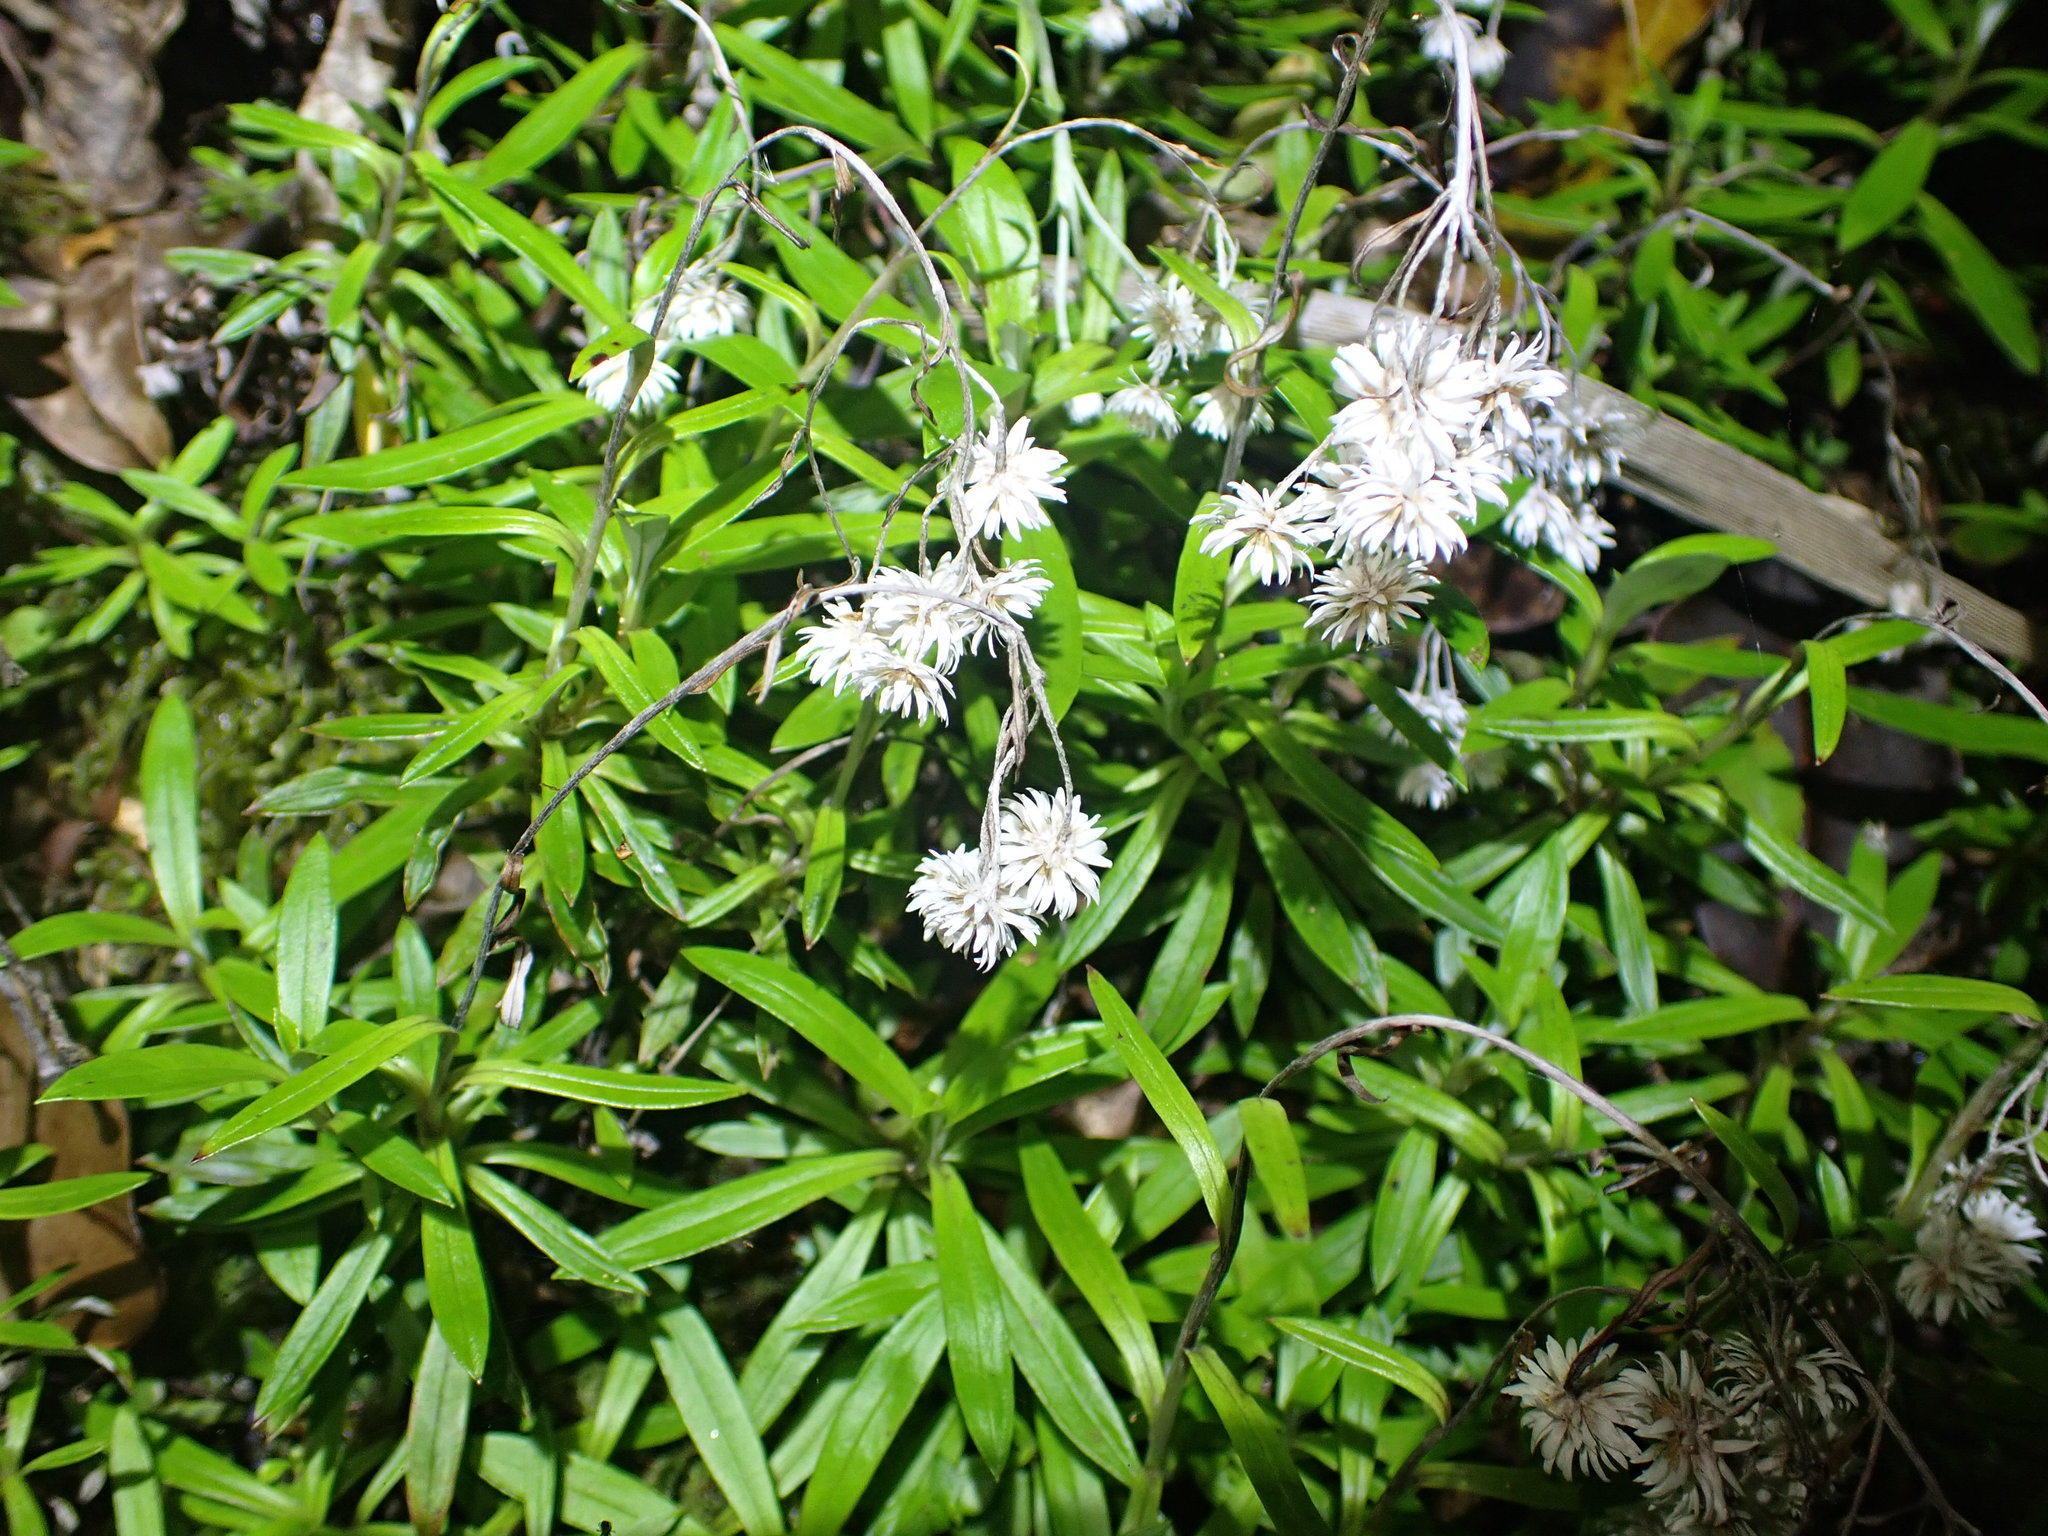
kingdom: Plantae
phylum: Tracheophyta
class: Magnoliopsida
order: Asterales
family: Asteraceae
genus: Anaphalioides
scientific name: Anaphalioides trinervis
